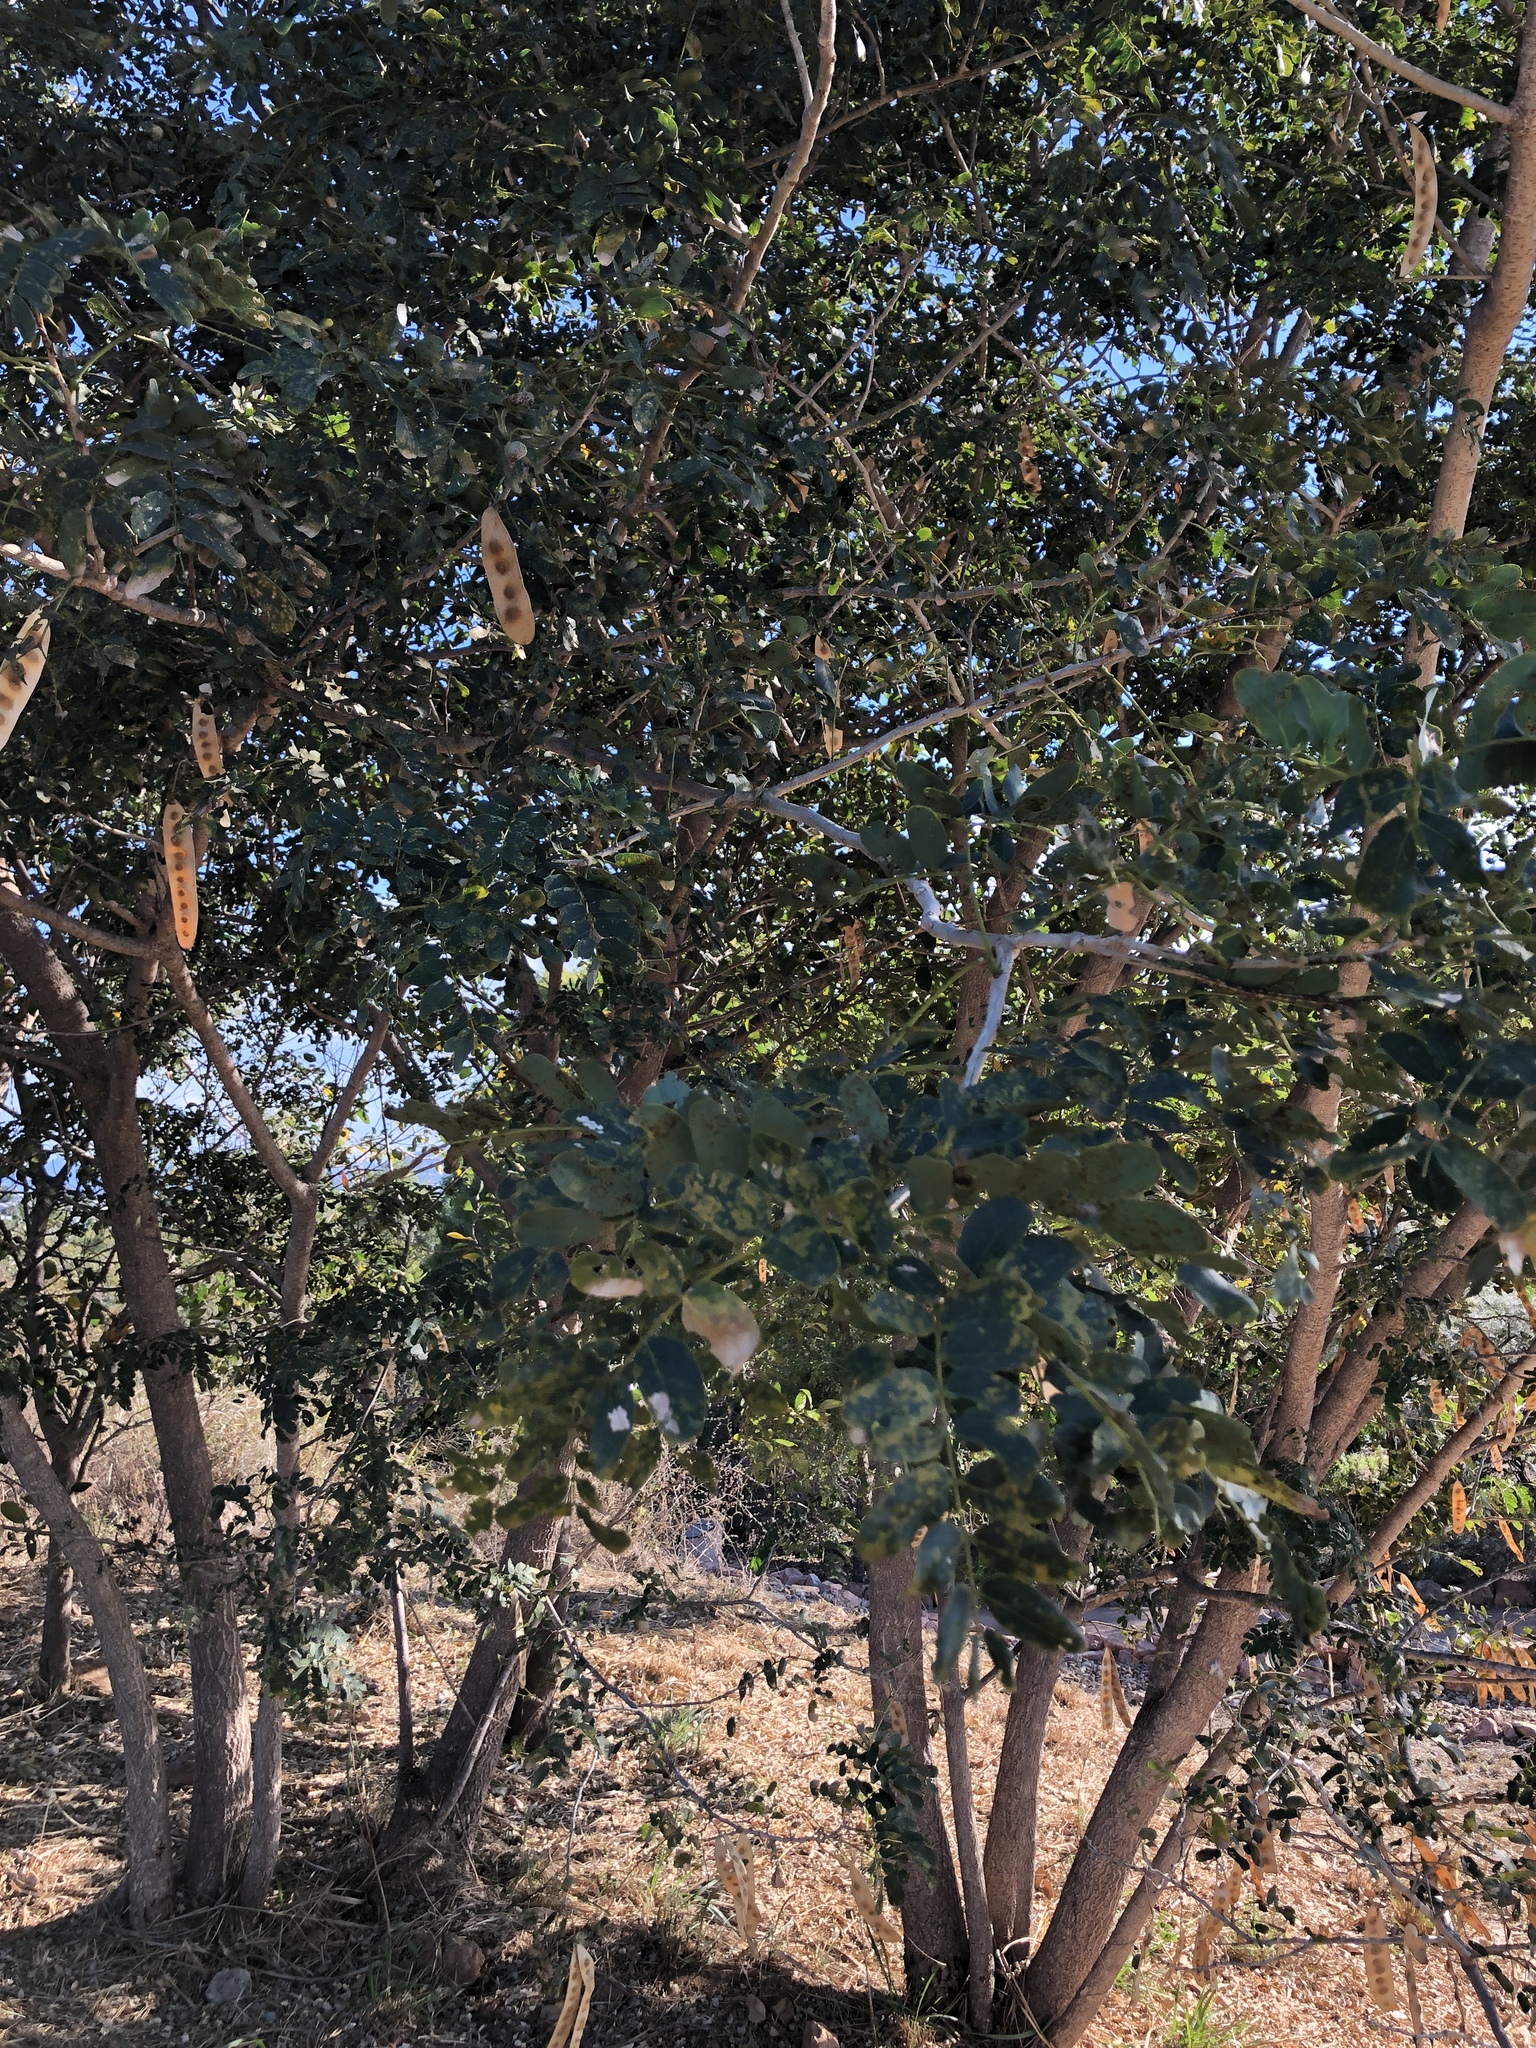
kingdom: Plantae
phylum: Tracheophyta
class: Magnoliopsida
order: Fabales
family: Fabaceae
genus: Albizia
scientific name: Albizia lebbeck
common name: Woman's tongue
